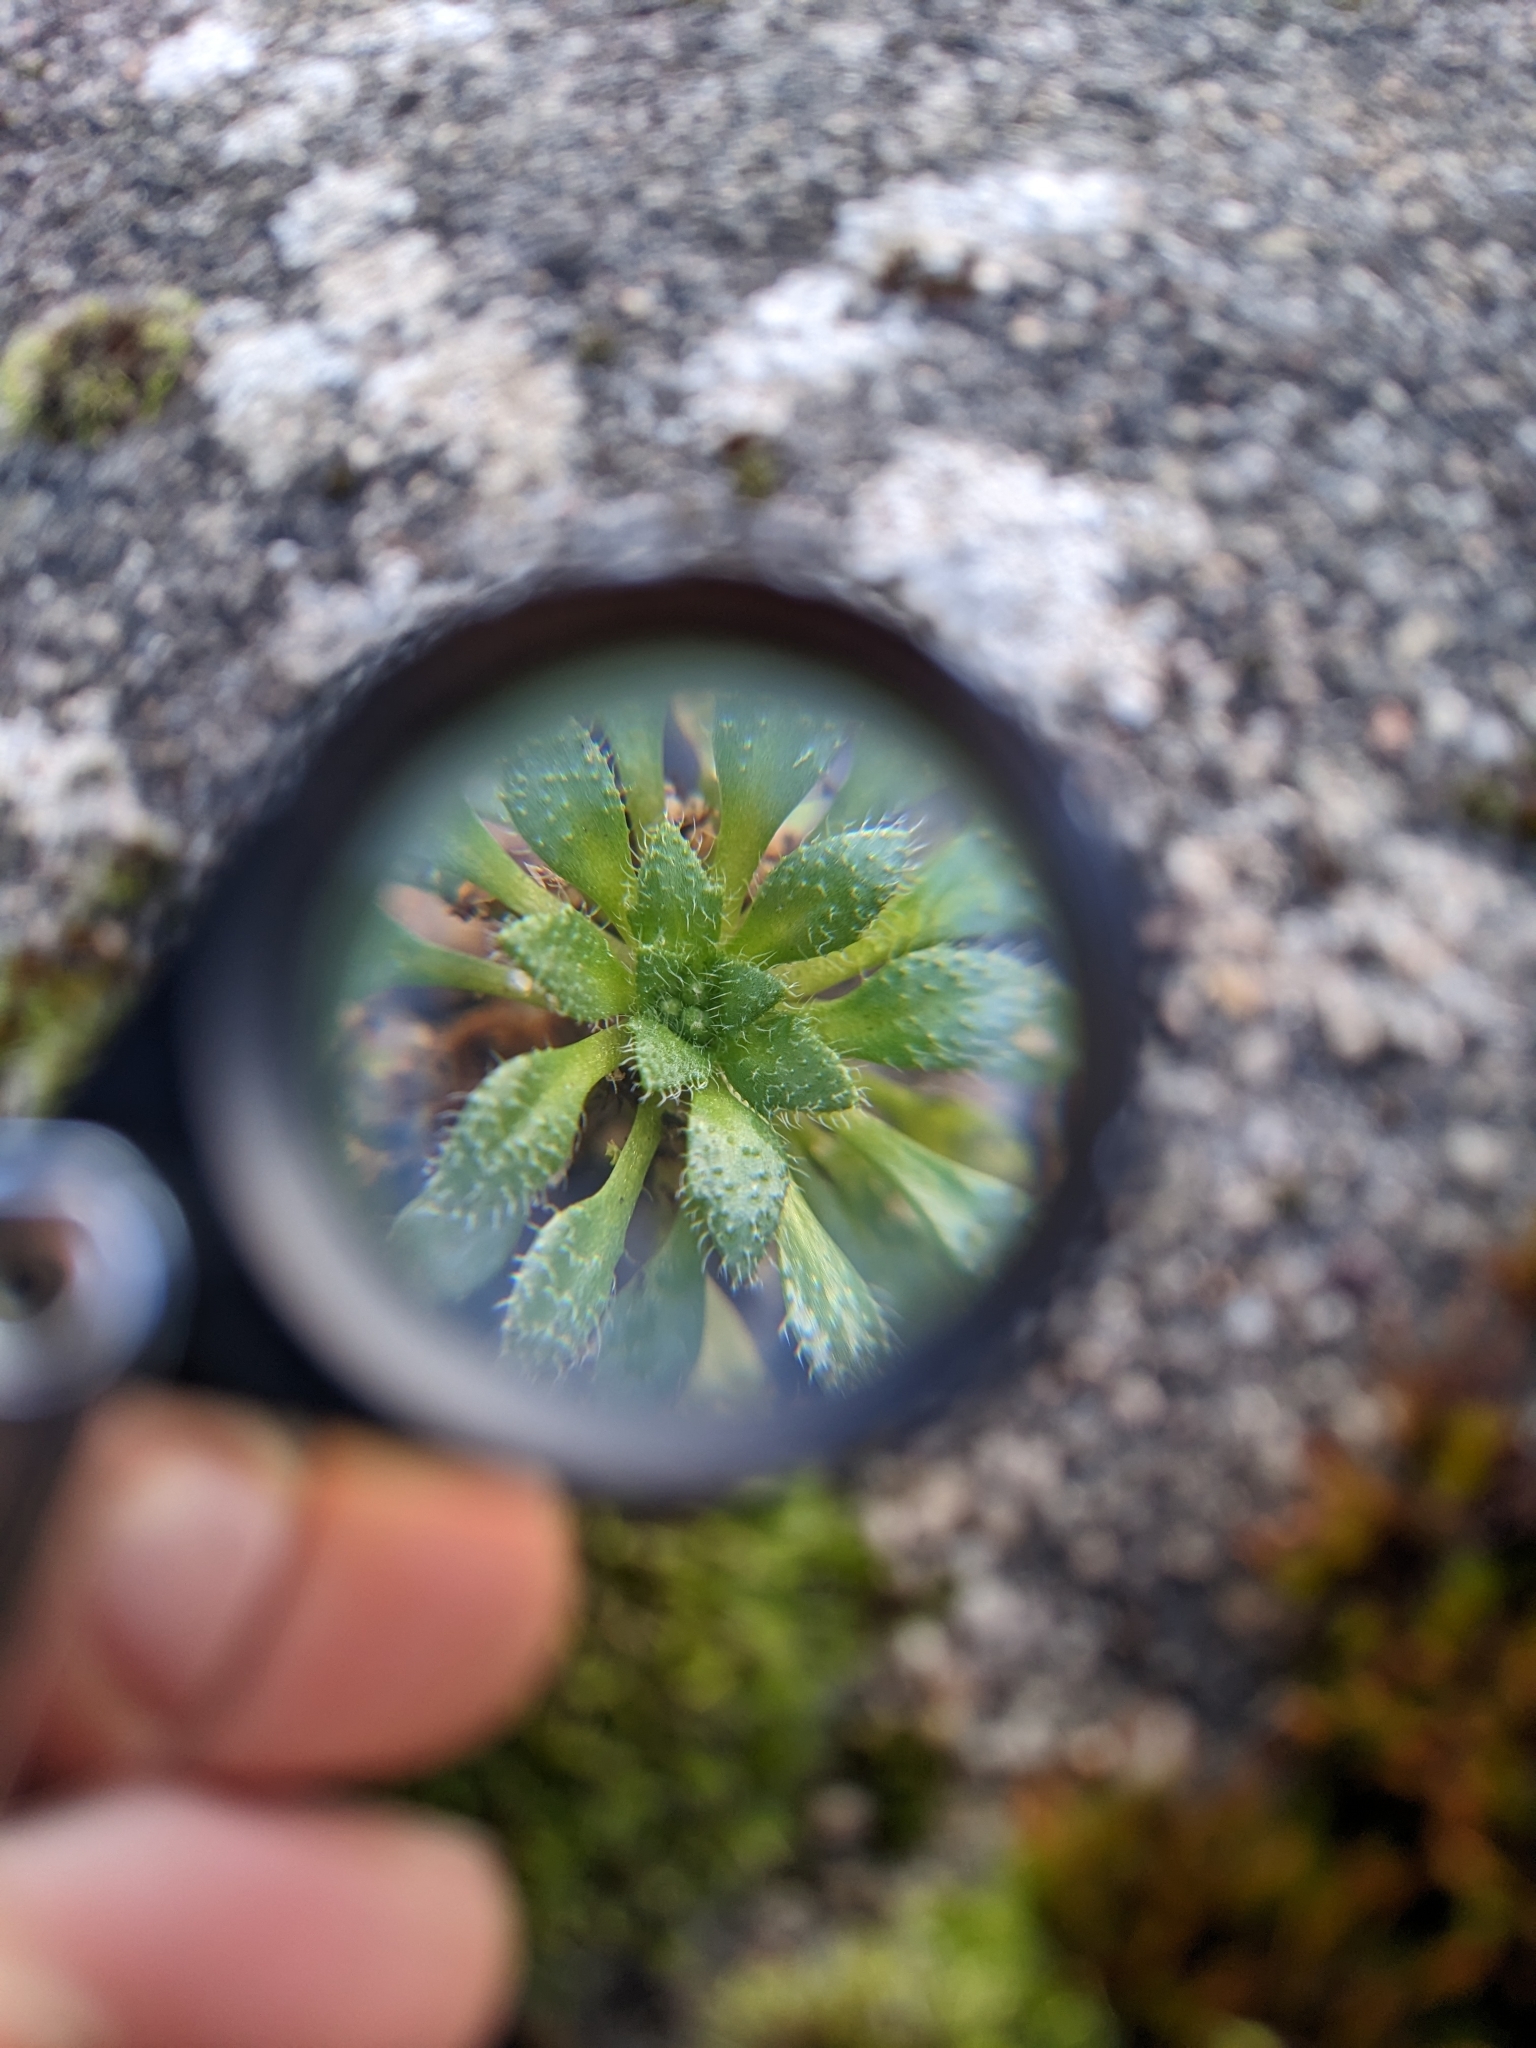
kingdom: Plantae
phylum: Tracheophyta
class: Magnoliopsida
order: Brassicales
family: Brassicaceae
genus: Draba
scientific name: Draba verna
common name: Spring draba
